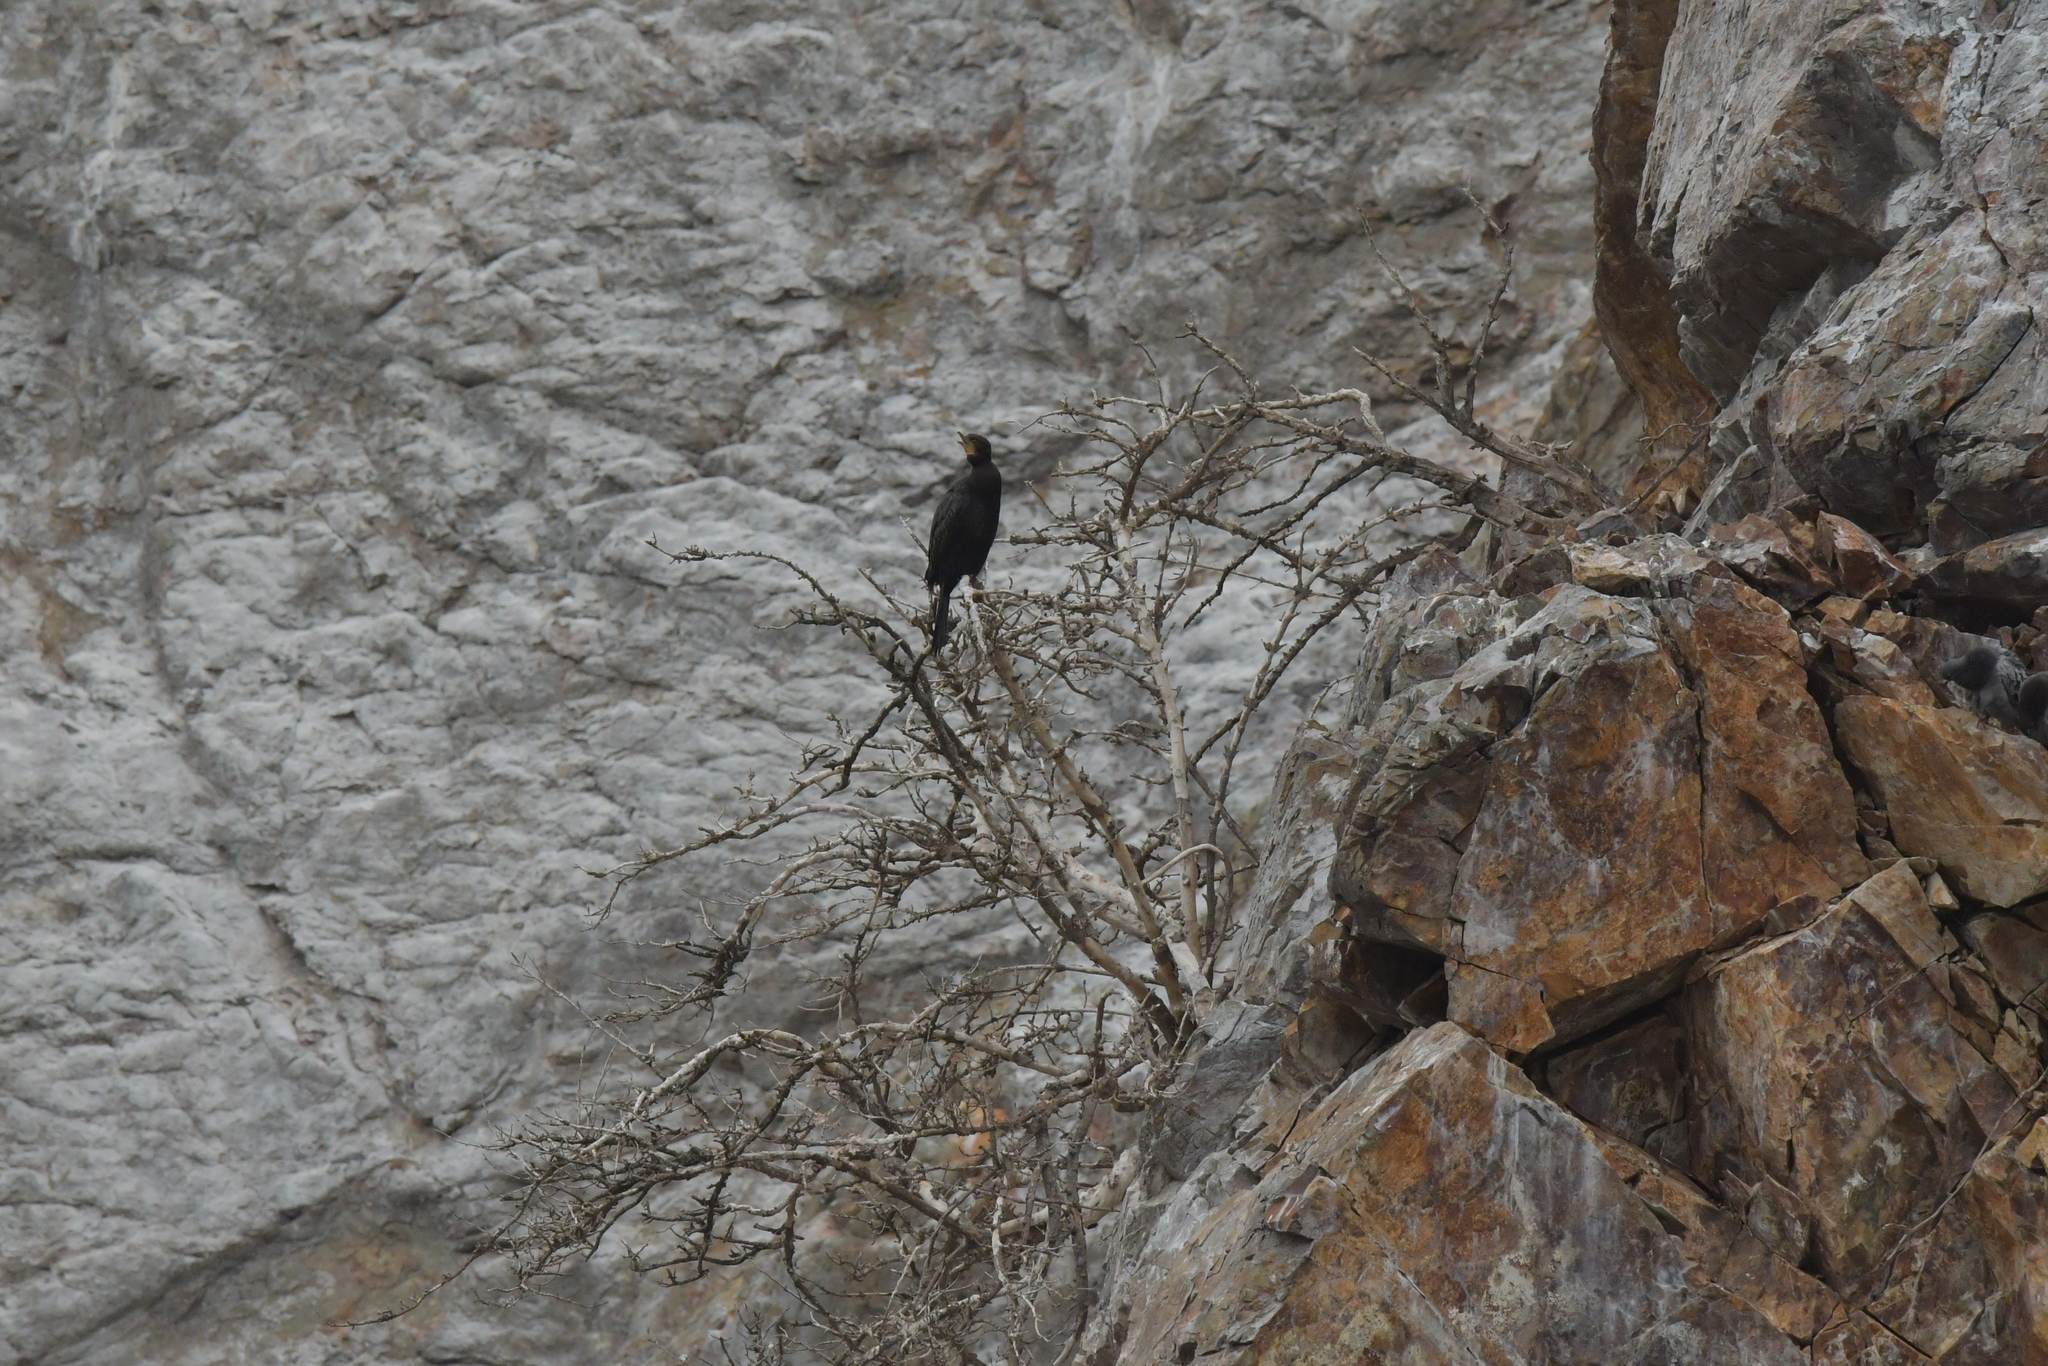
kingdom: Animalia
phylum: Chordata
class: Aves
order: Suliformes
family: Phalacrocoracidae
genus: Microcarbo
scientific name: Microcarbo melanoleucos
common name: Little pied cormorant
